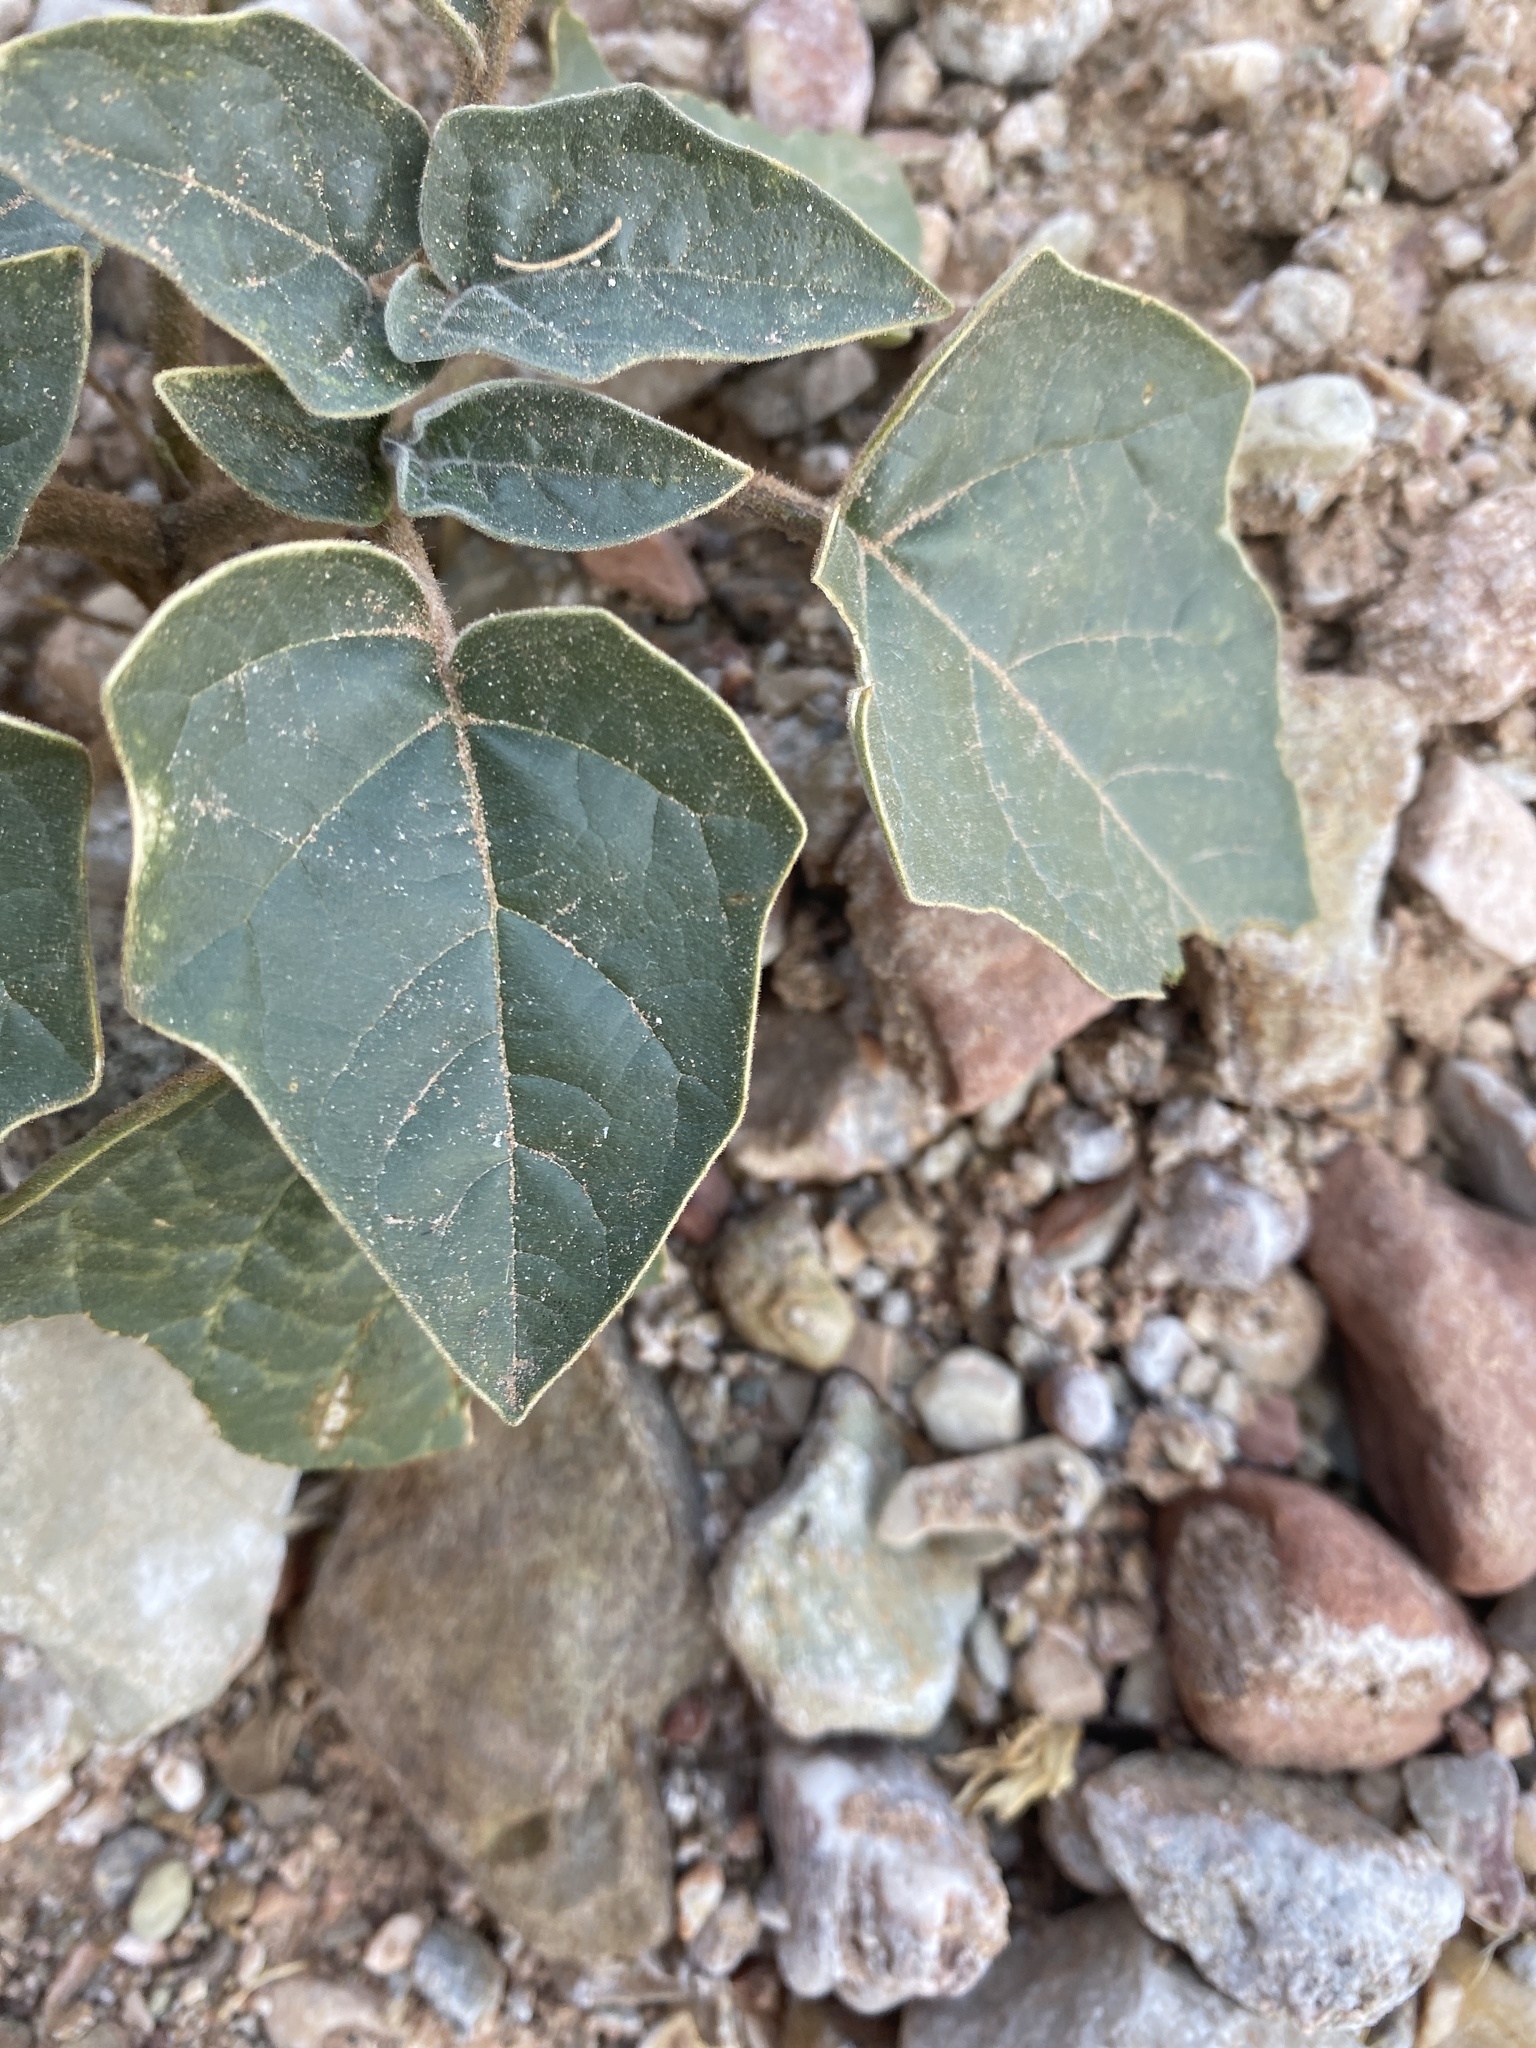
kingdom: Plantae
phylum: Tracheophyta
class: Magnoliopsida
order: Solanales
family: Solanaceae
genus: Datura
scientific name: Datura wrightii
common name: Sacred thorn-apple
